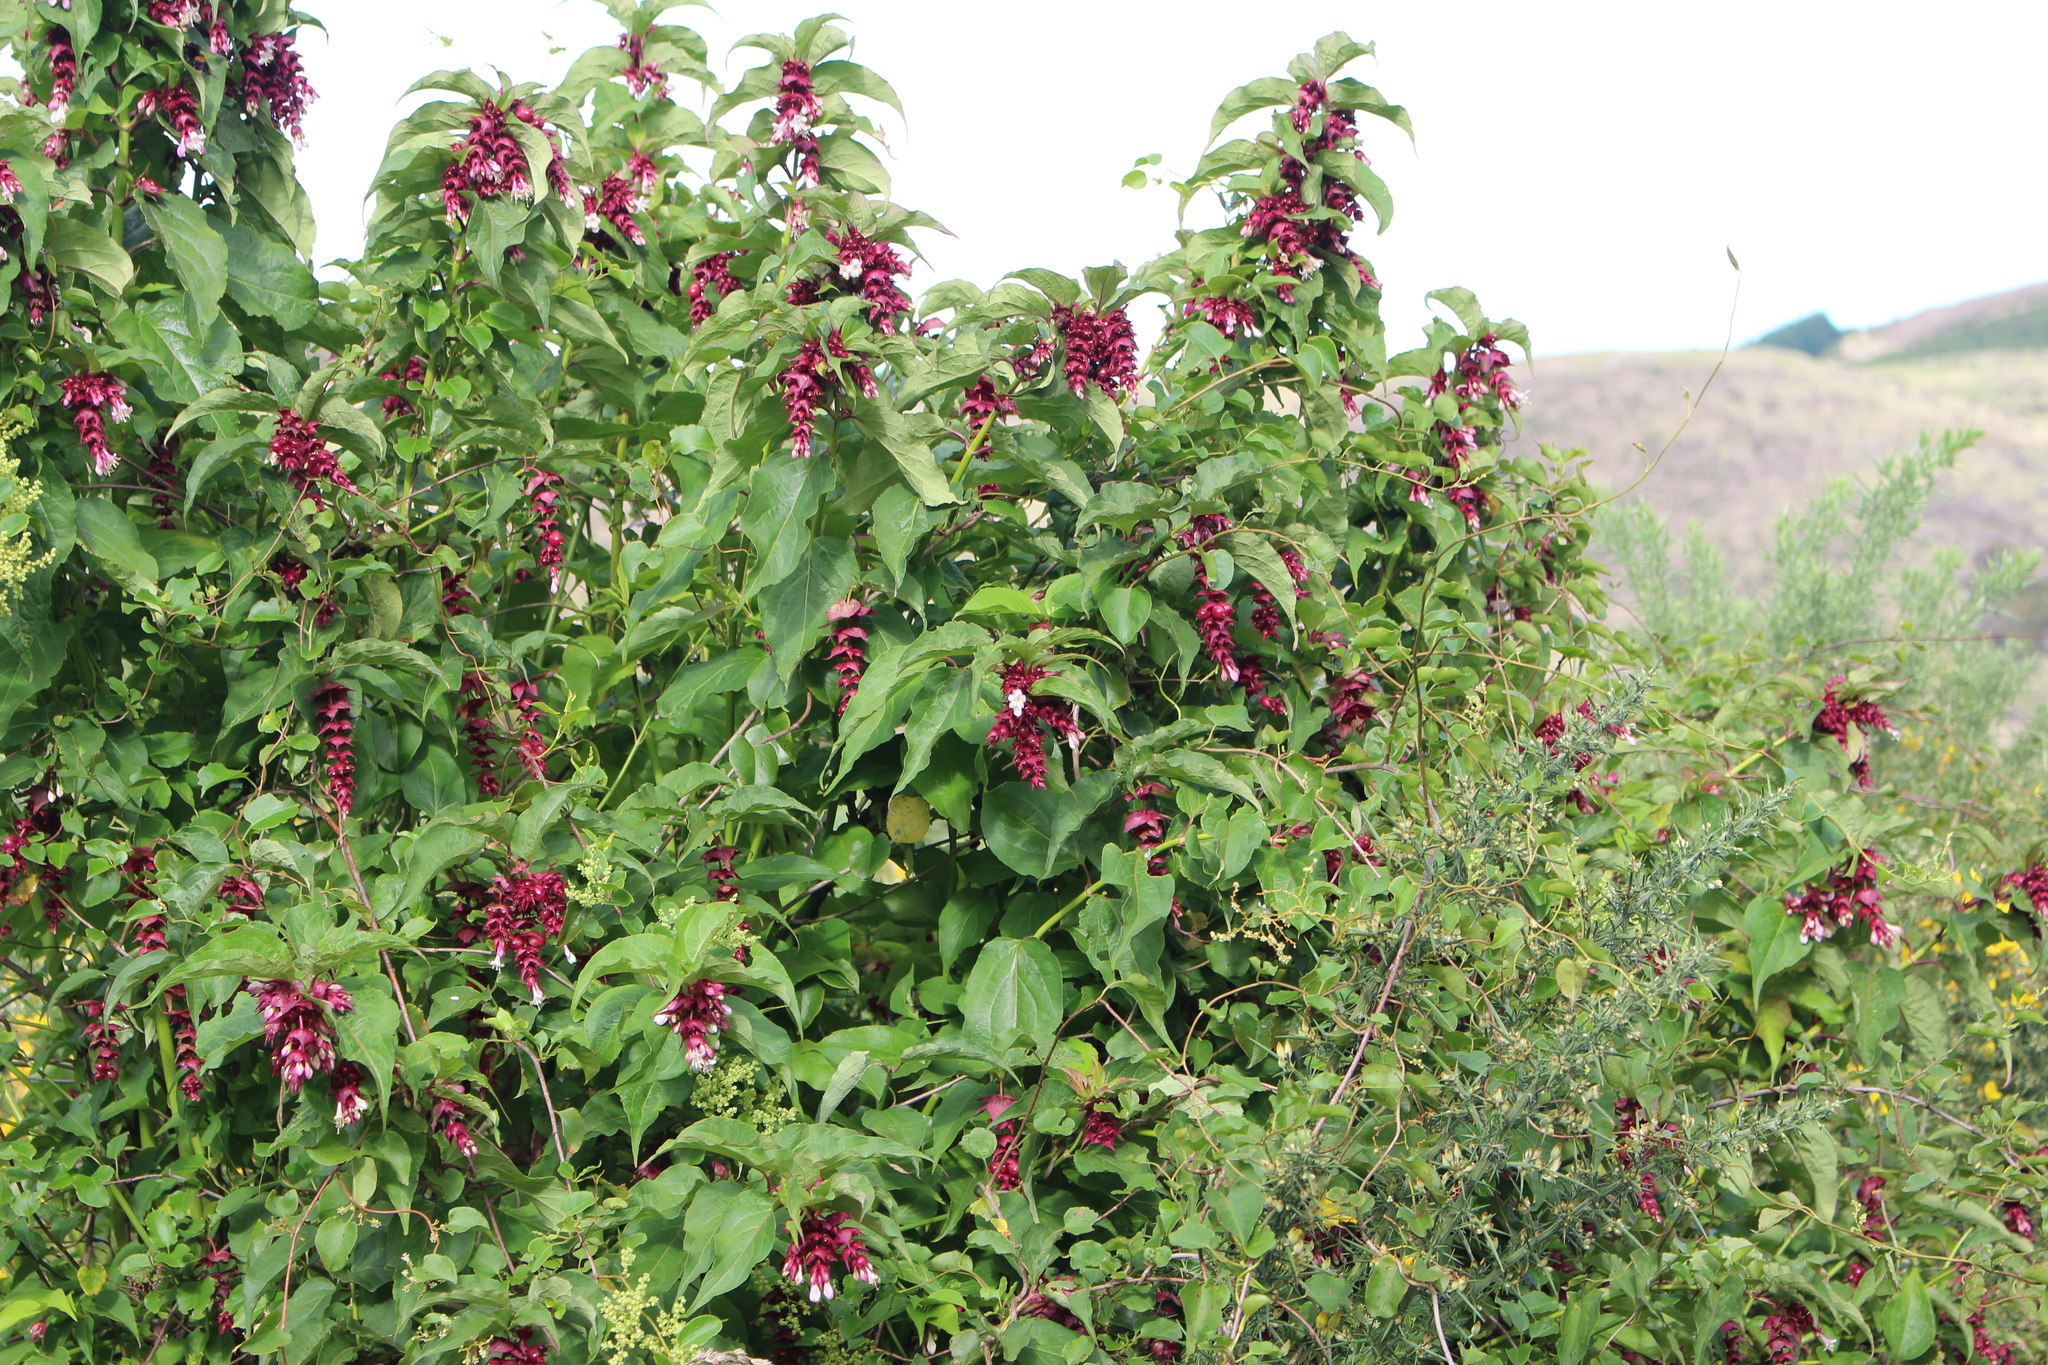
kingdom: Plantae
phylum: Tracheophyta
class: Magnoliopsida
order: Dipsacales
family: Caprifoliaceae
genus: Leycesteria
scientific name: Leycesteria formosa
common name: Himalayan honeysuckle
